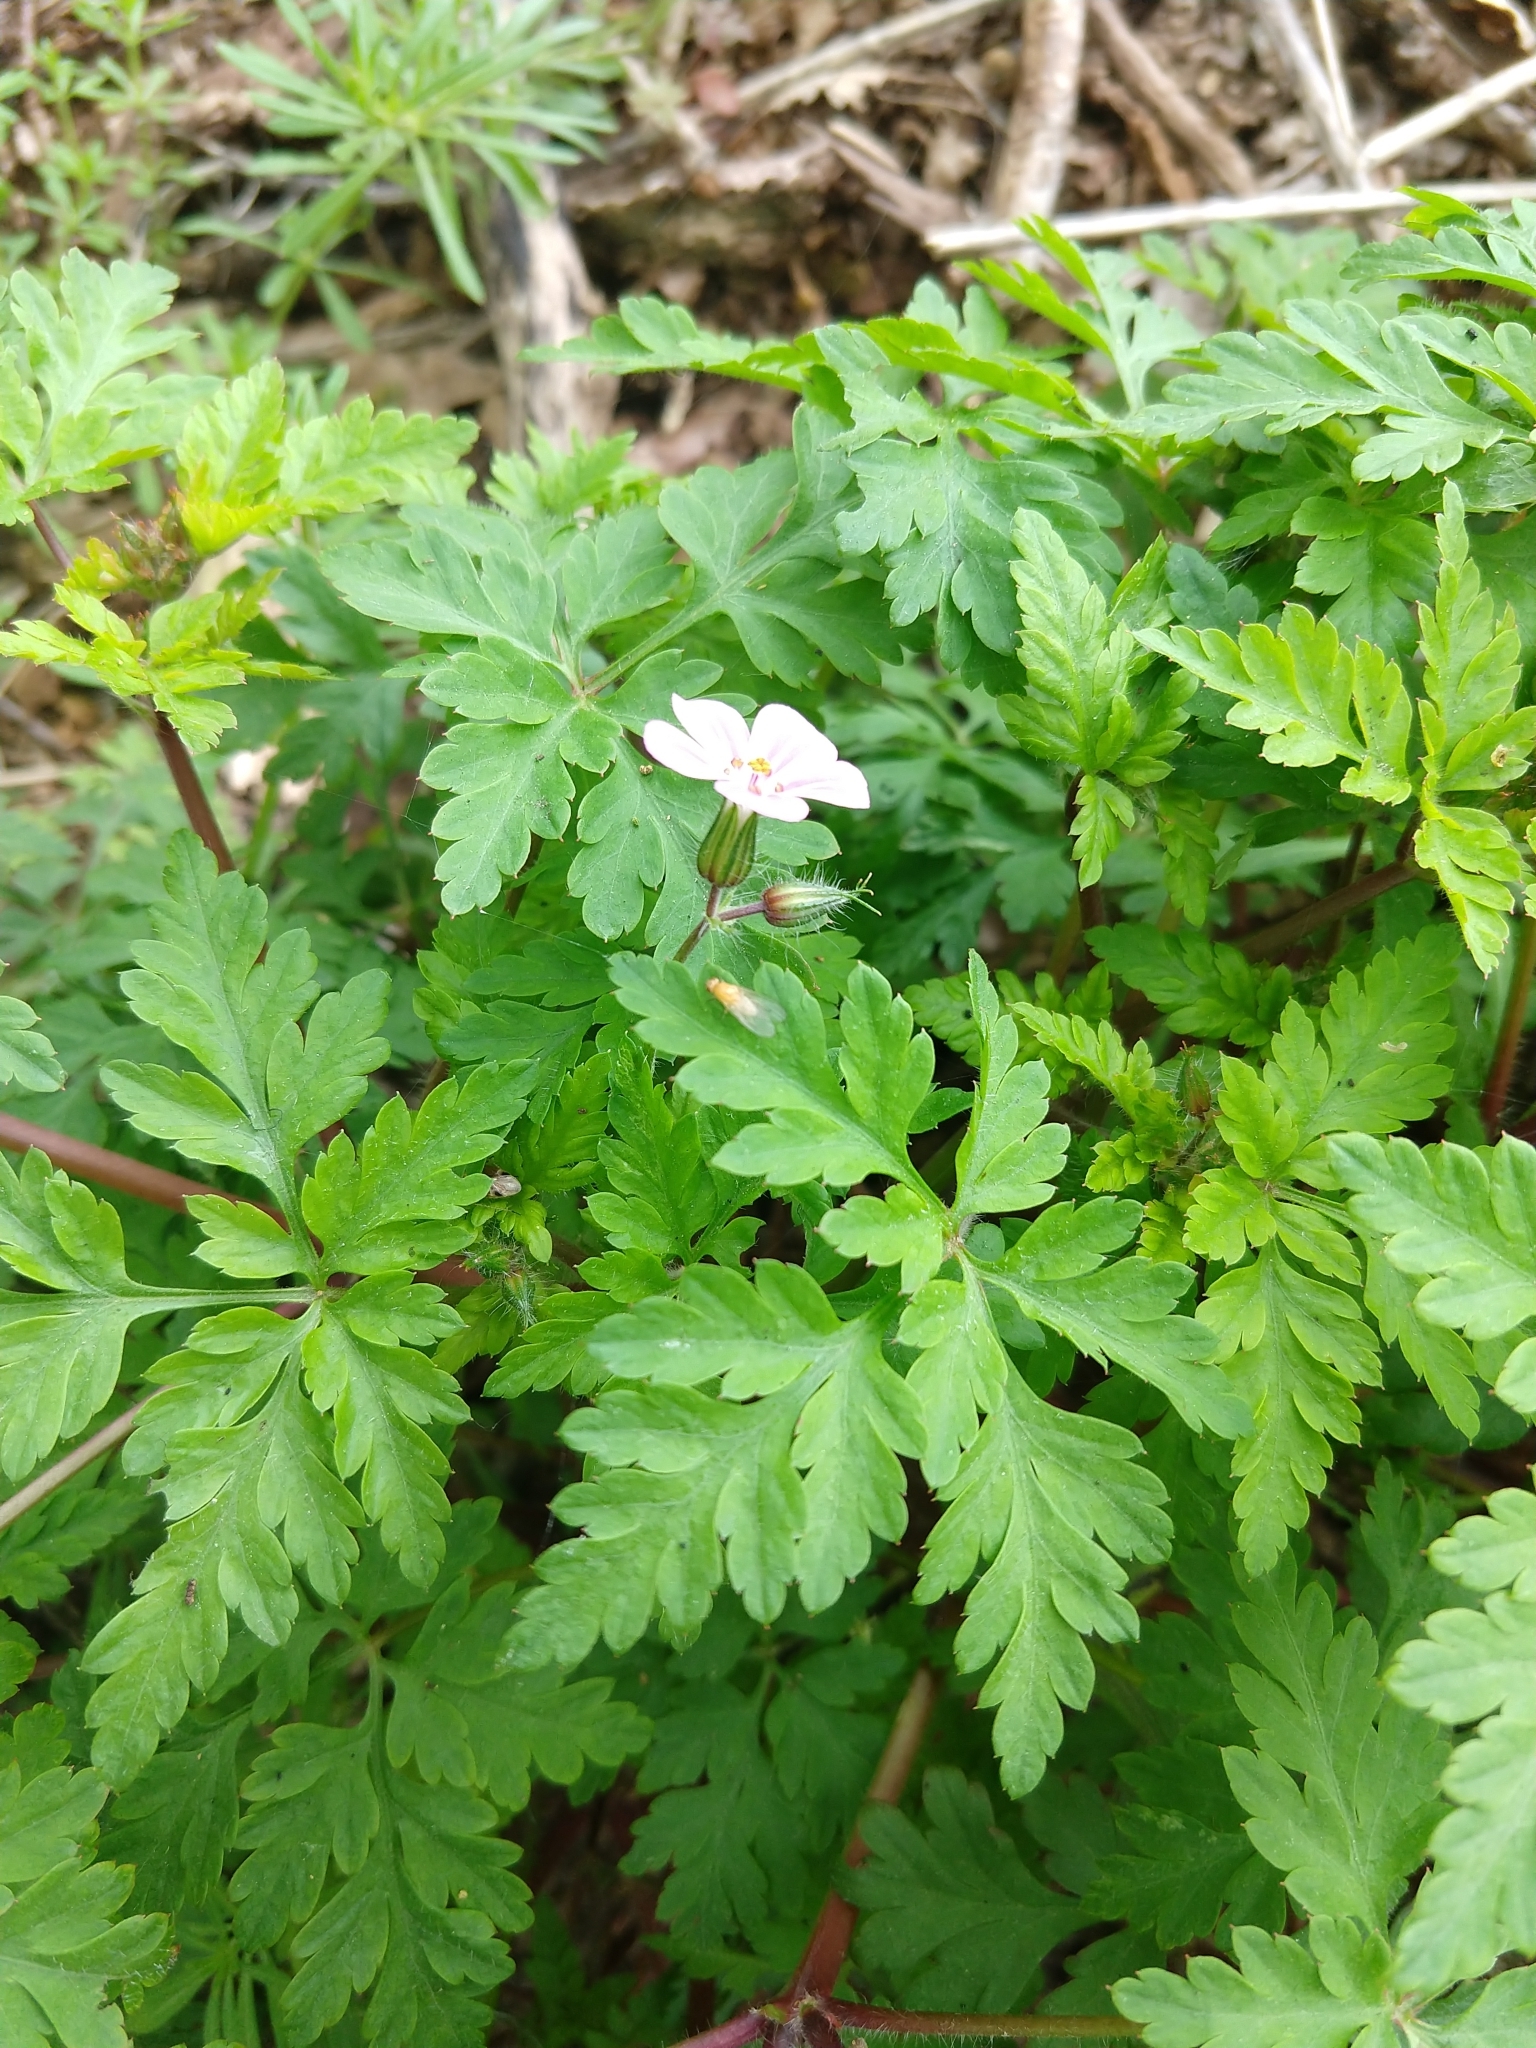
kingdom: Plantae
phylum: Tracheophyta
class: Magnoliopsida
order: Geraniales
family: Geraniaceae
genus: Geranium
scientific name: Geranium robertianum
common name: Herb-robert
